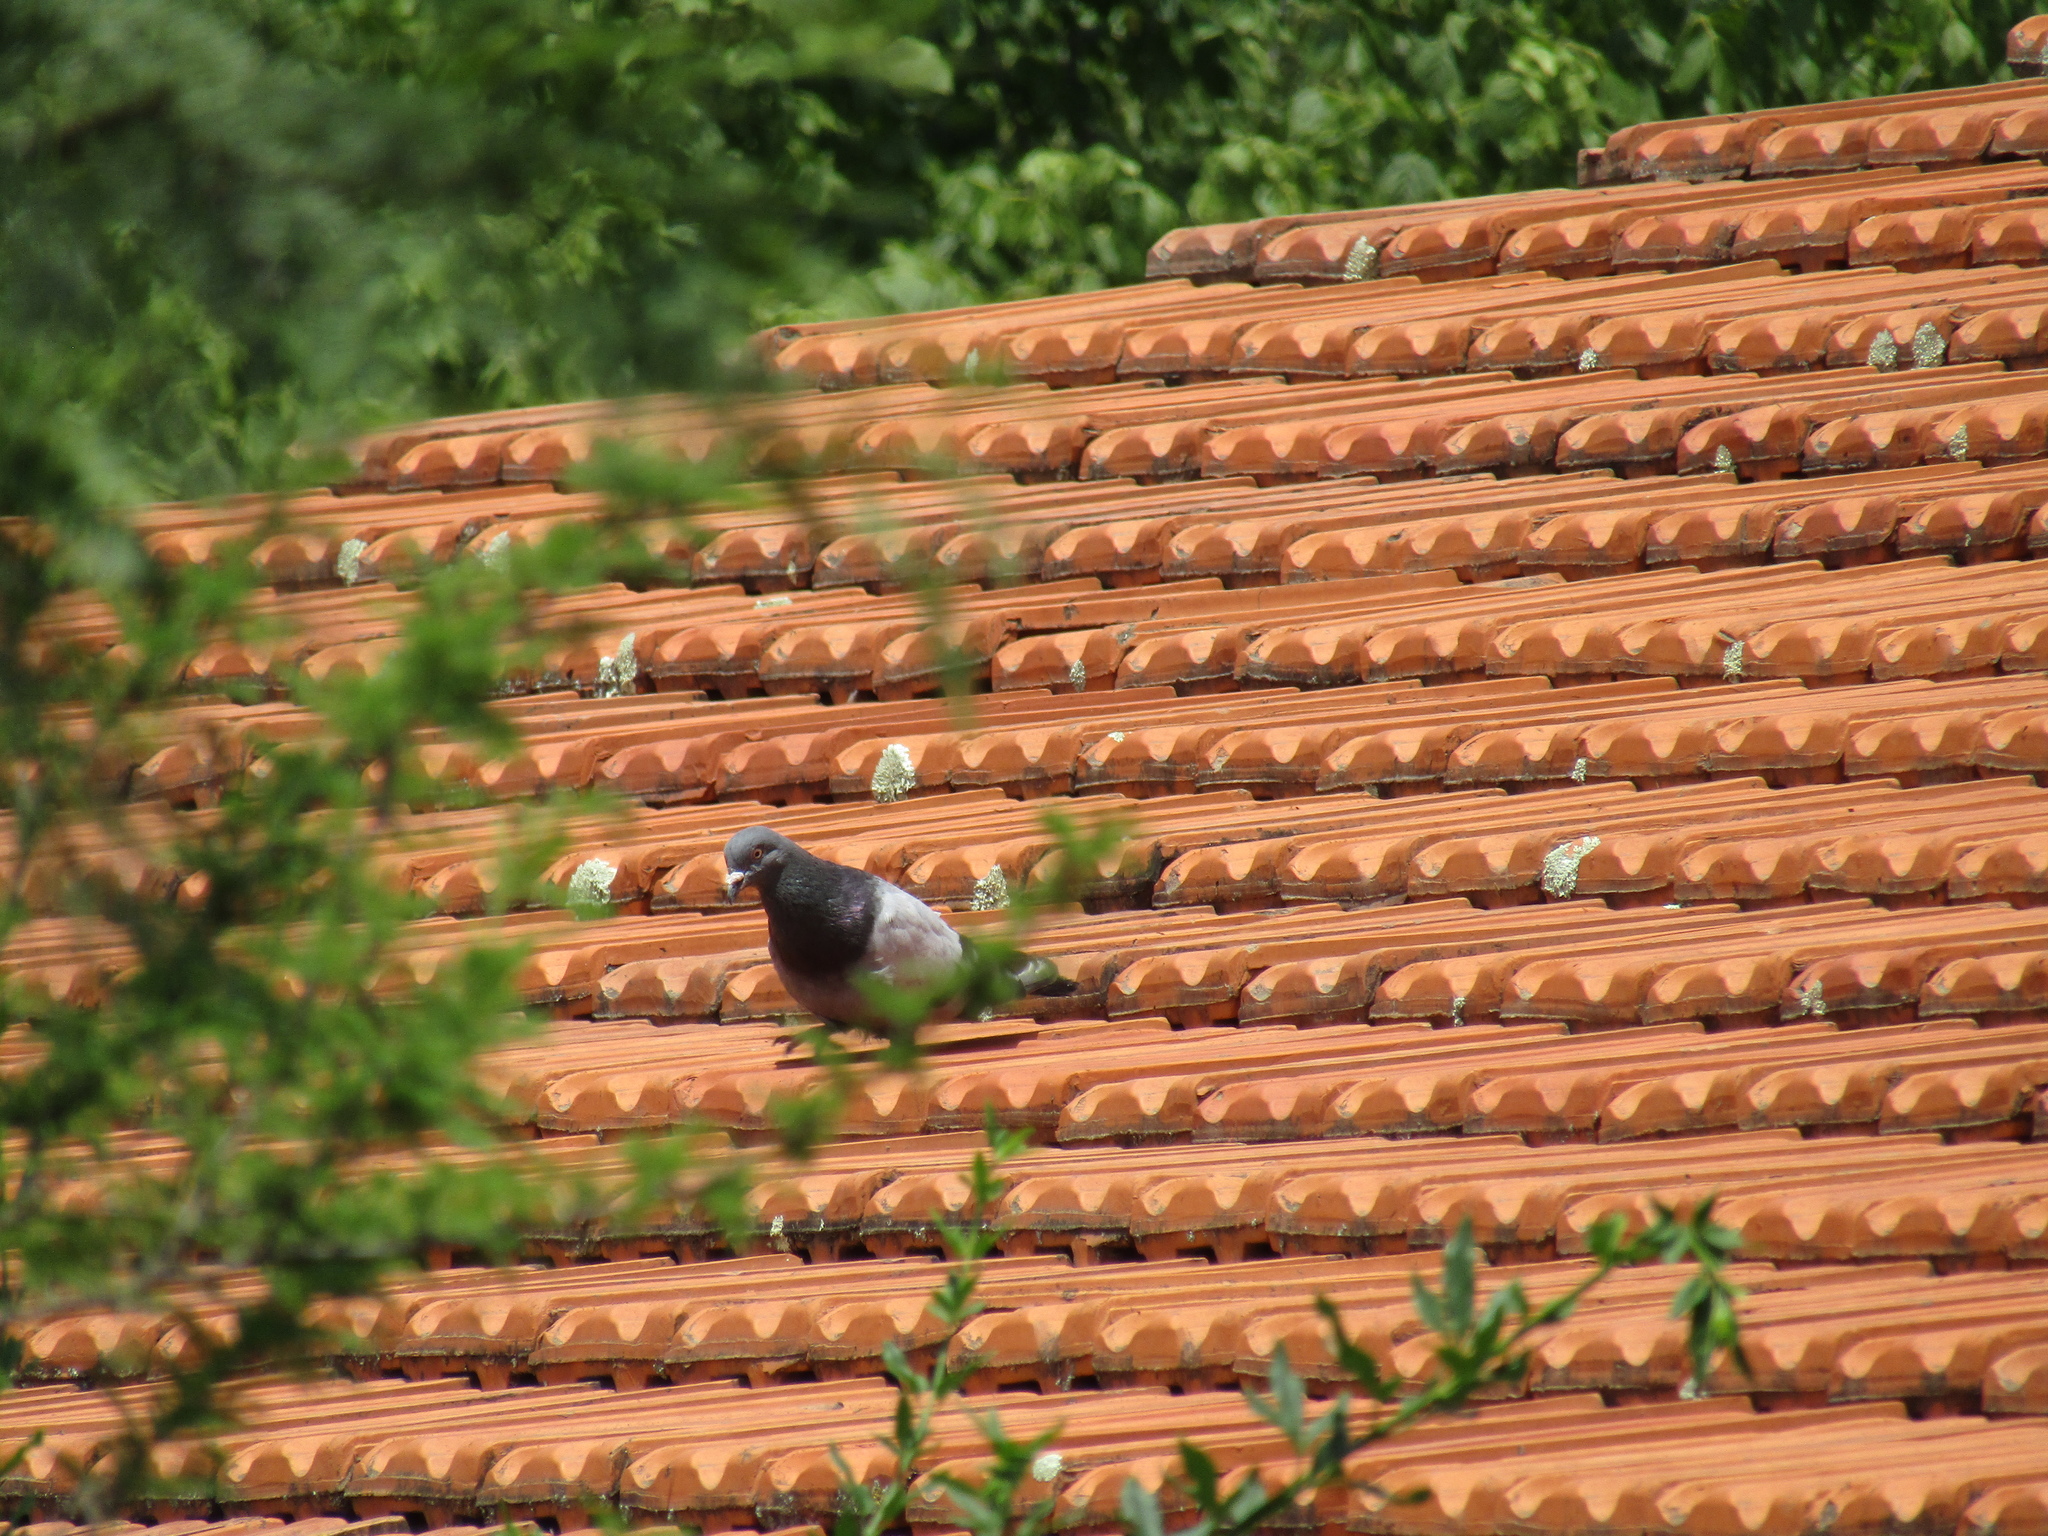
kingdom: Animalia
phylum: Chordata
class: Aves
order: Columbiformes
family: Columbidae
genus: Columba
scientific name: Columba livia
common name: Rock pigeon
